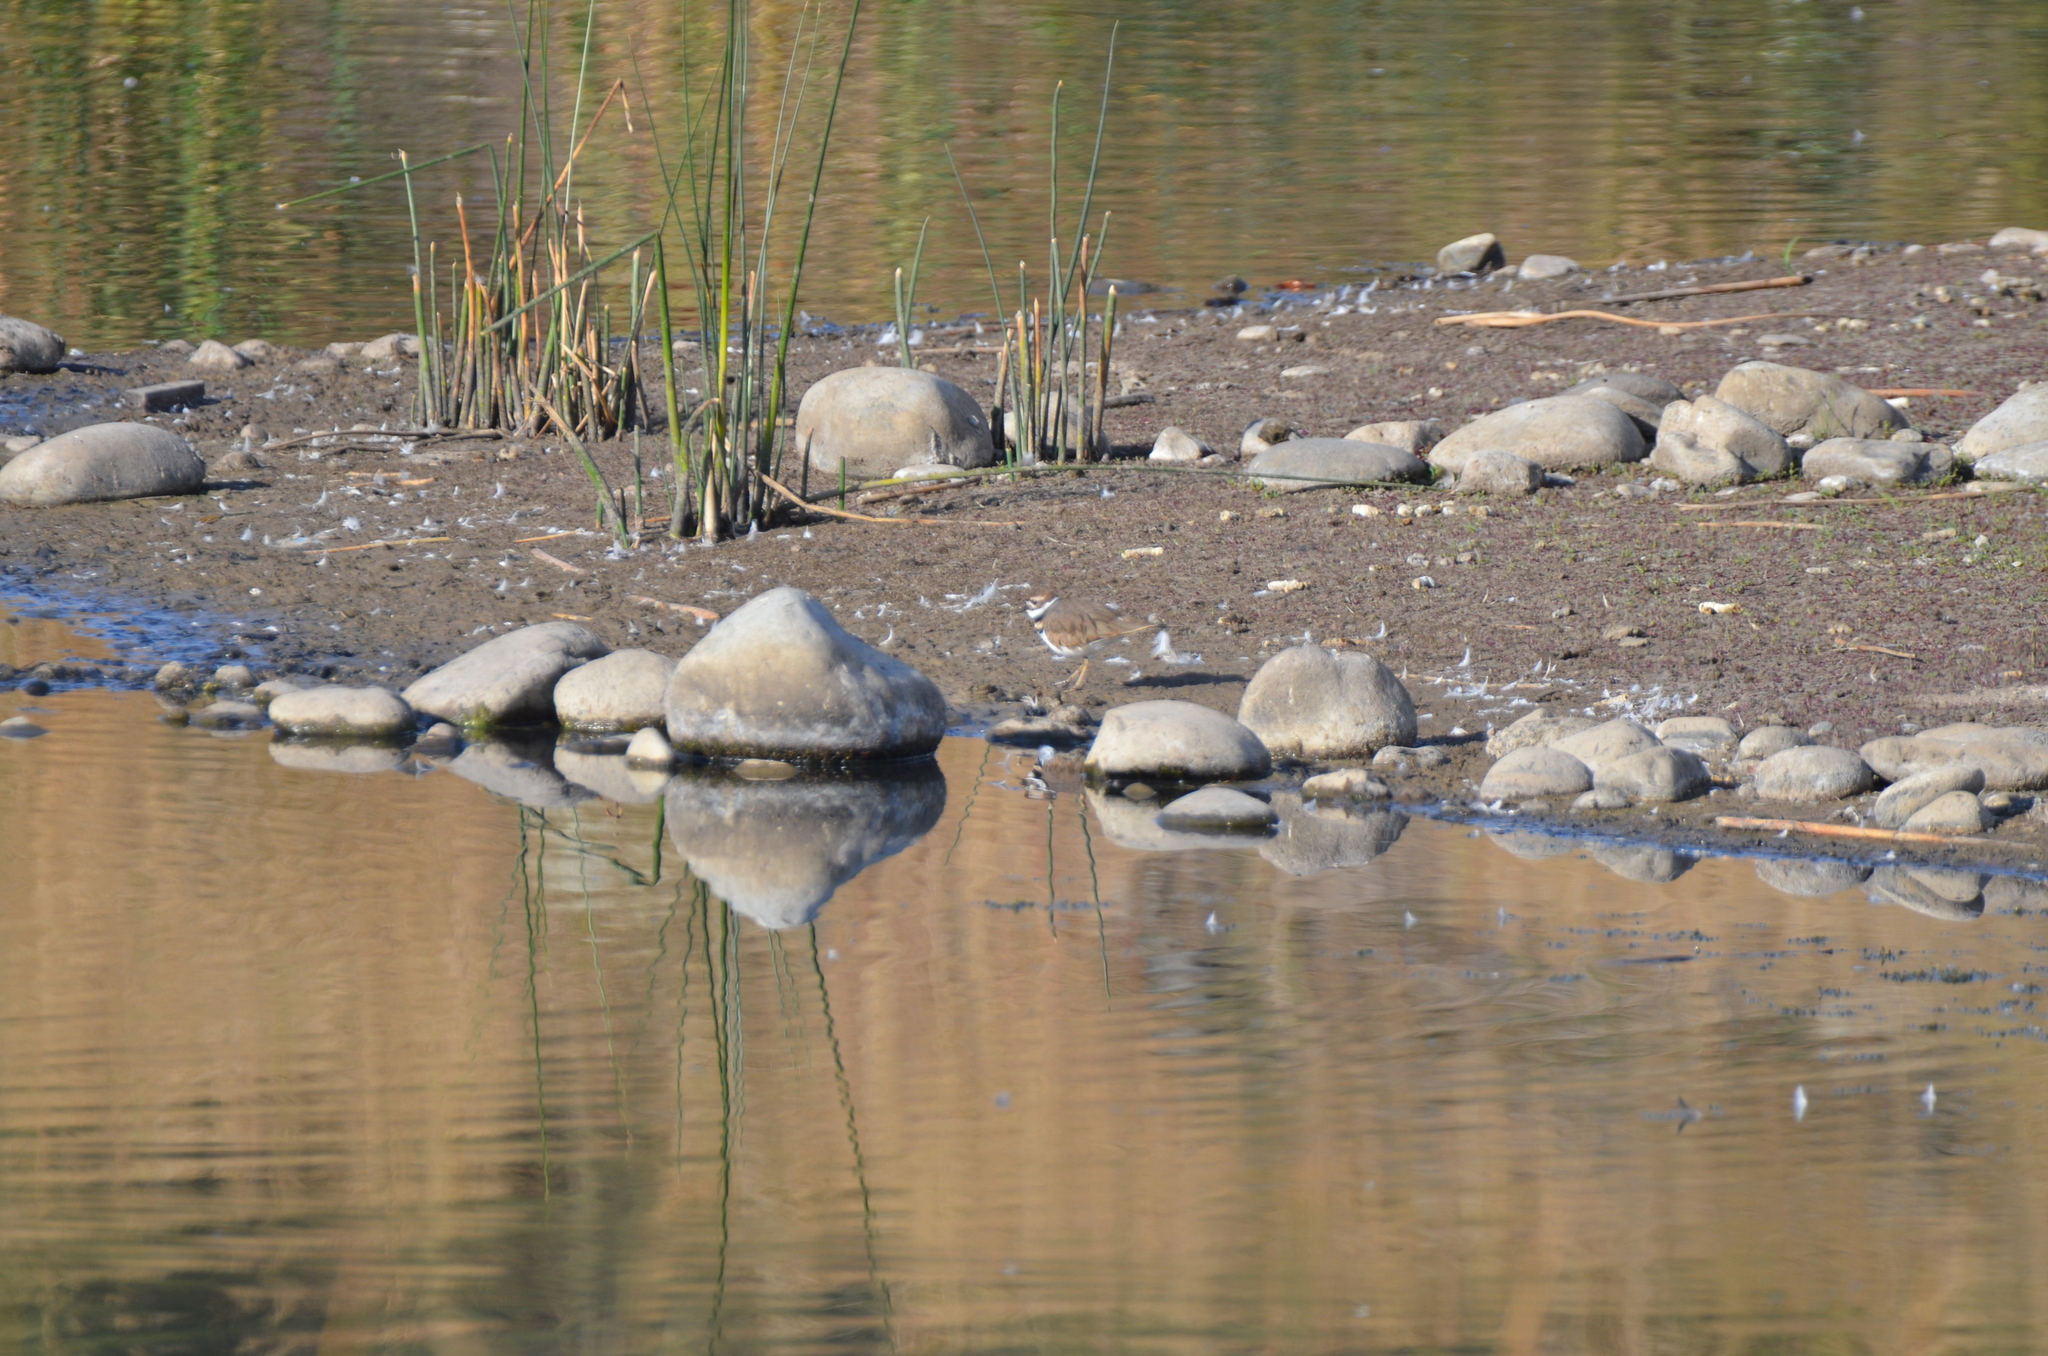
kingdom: Animalia
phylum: Chordata
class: Aves
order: Charadriiformes
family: Charadriidae
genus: Charadrius
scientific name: Charadrius vociferus
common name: Killdeer
